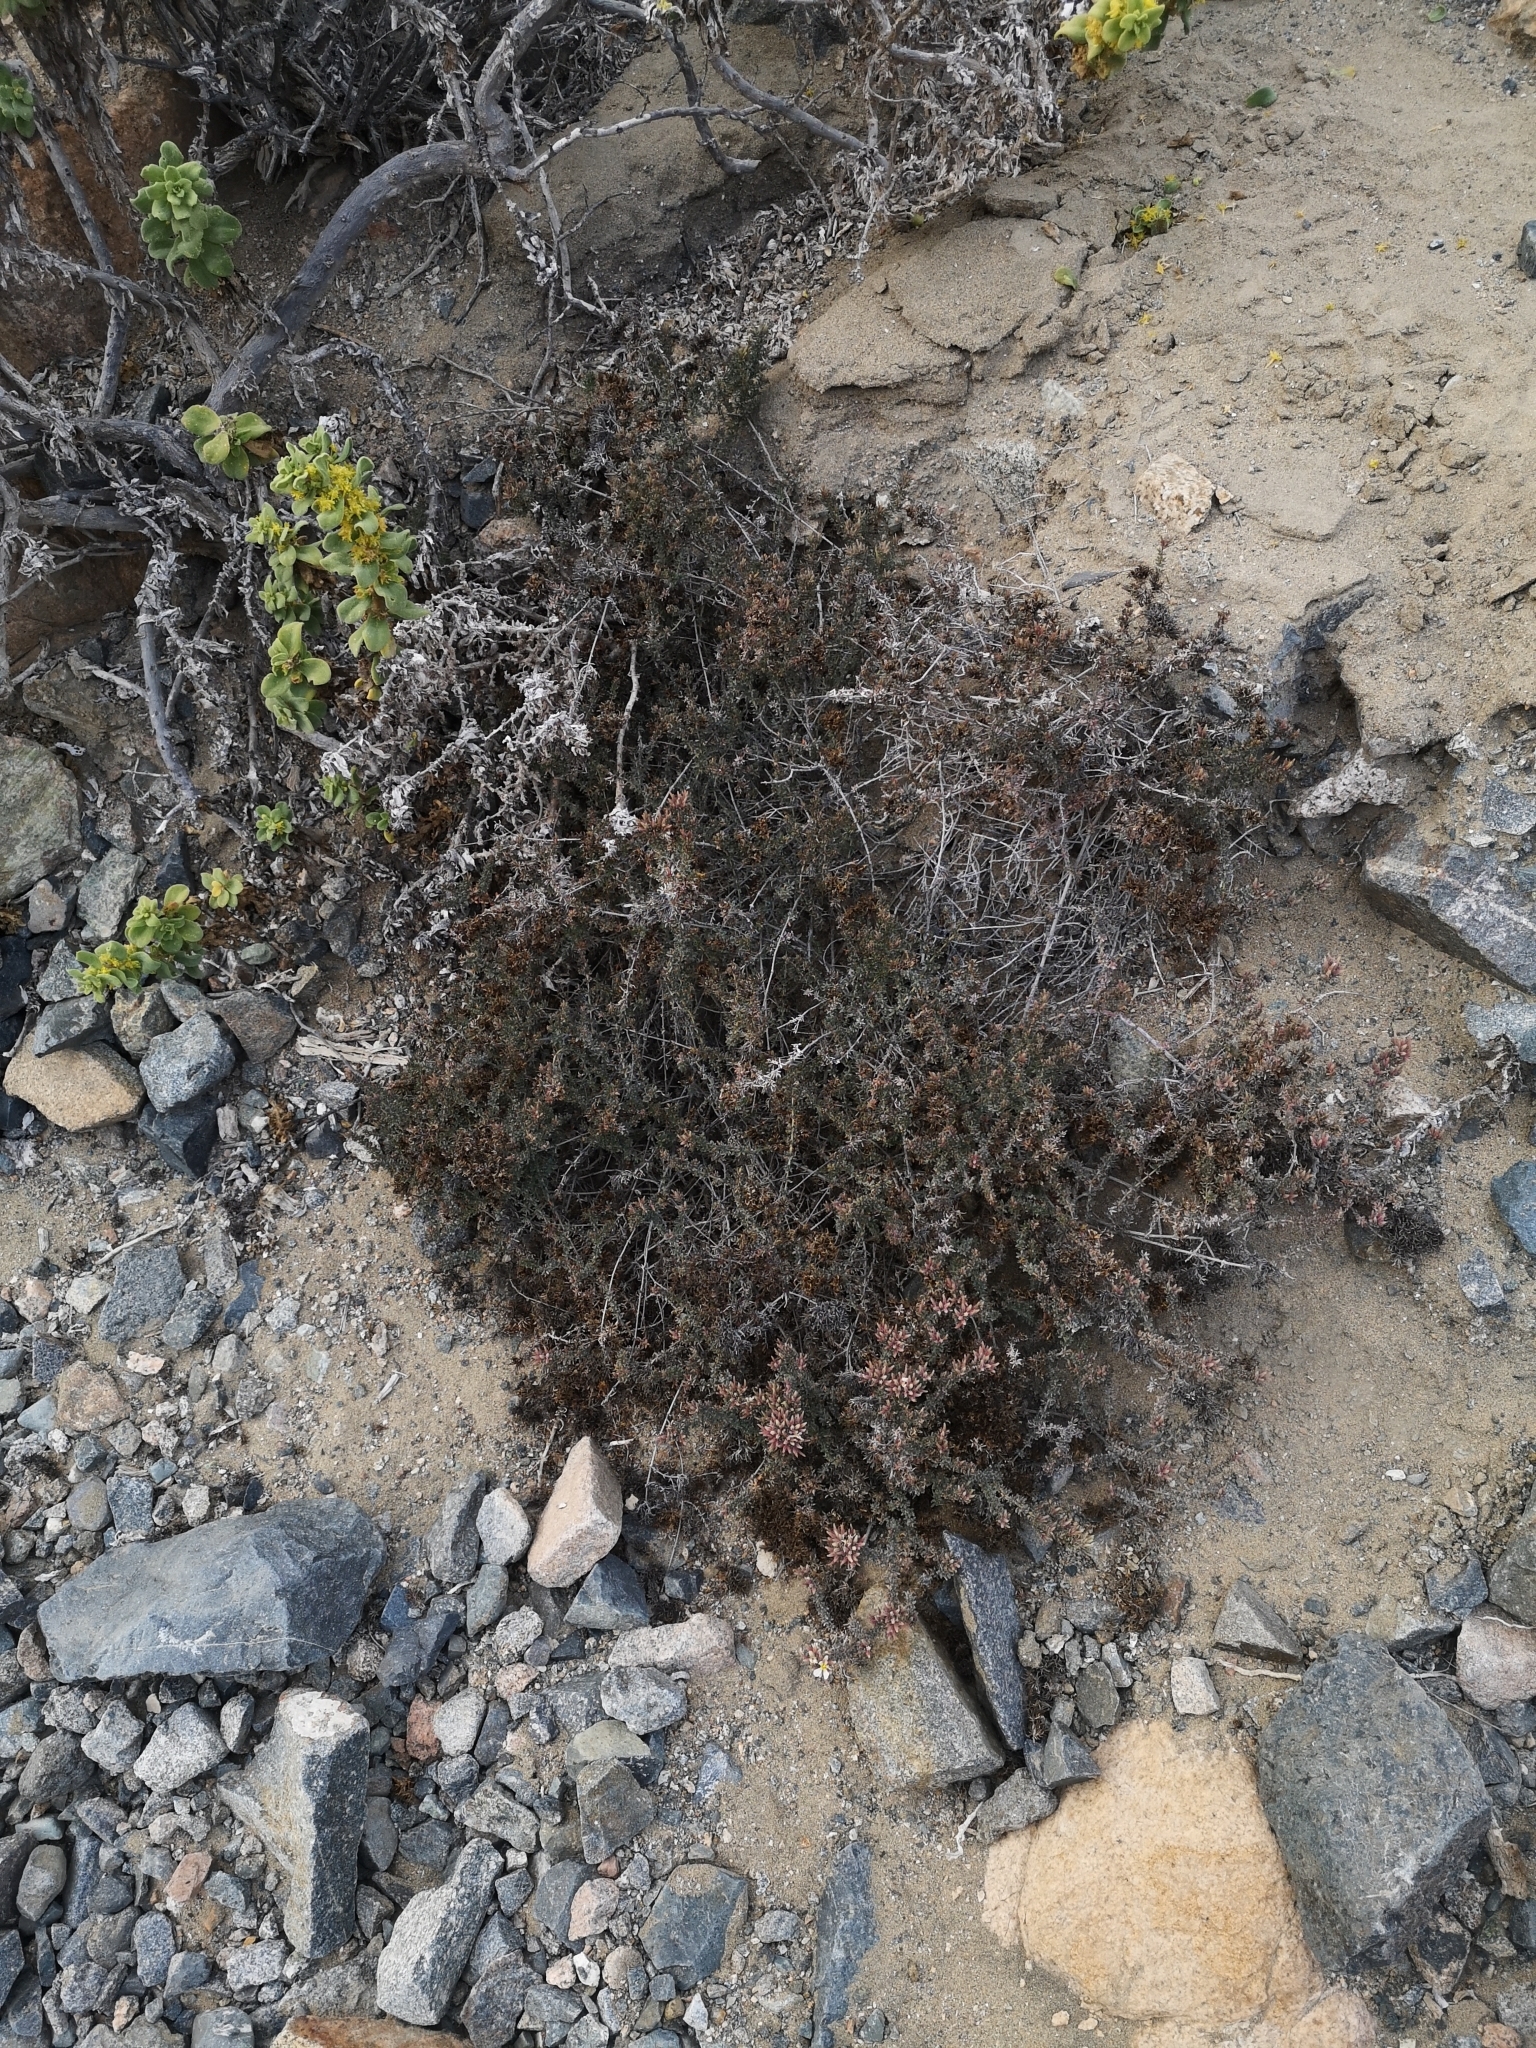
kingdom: Plantae
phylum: Tracheophyta
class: Magnoliopsida
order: Caryophyllales
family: Frankeniaceae
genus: Frankenia
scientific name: Frankenia chilensis
